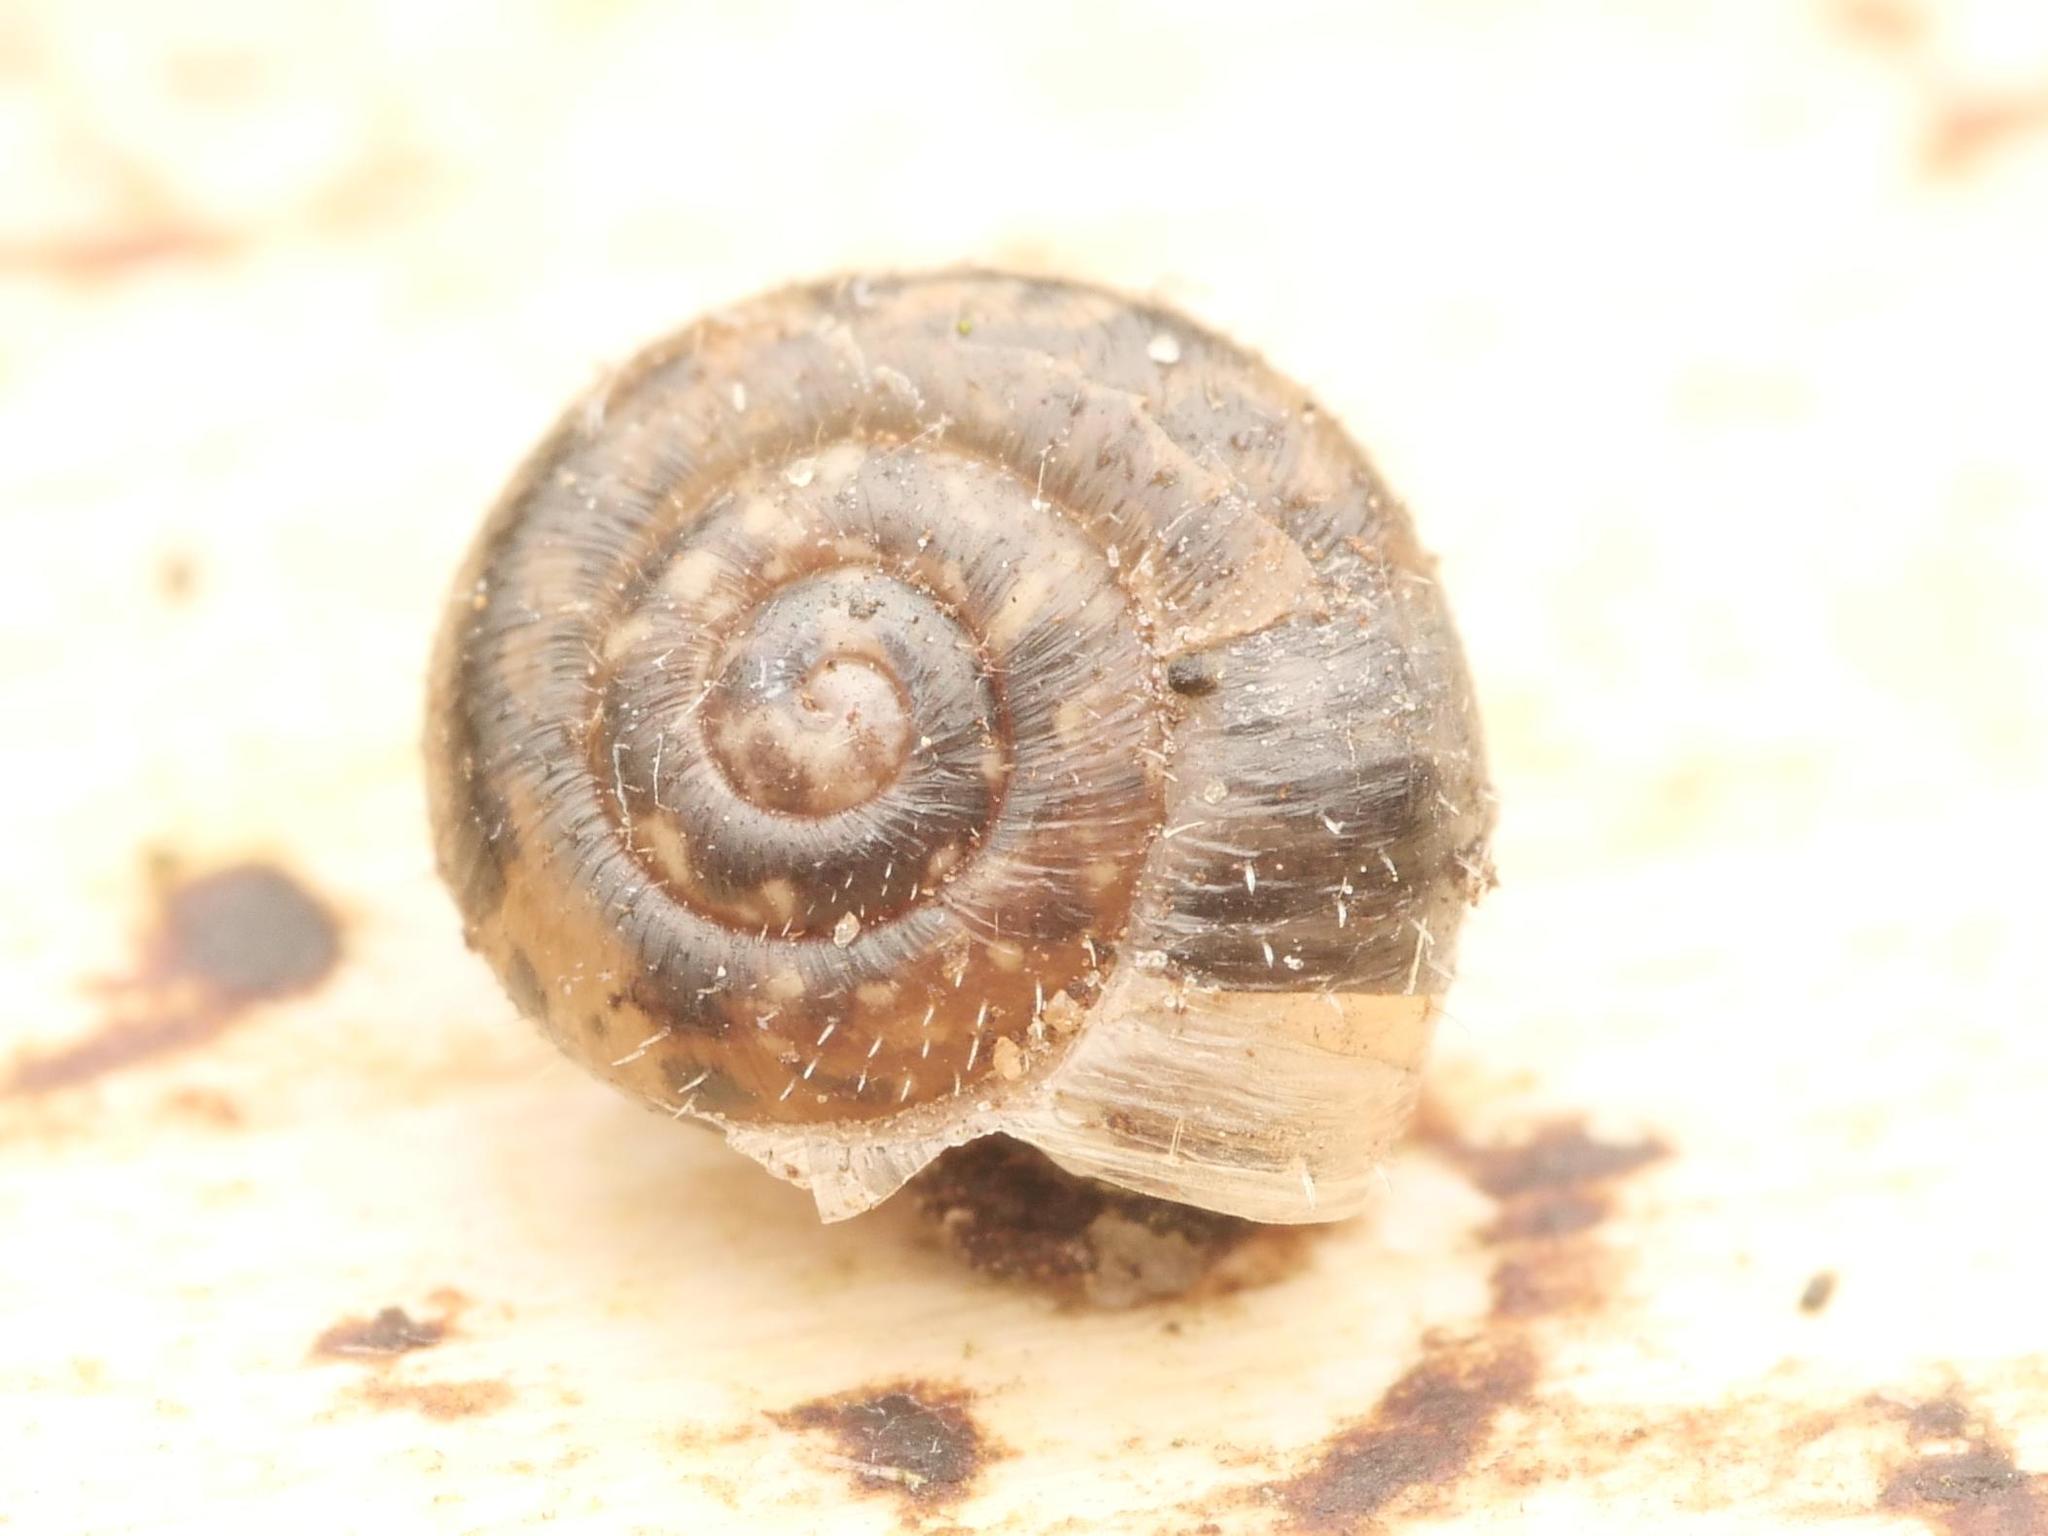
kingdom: Animalia
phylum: Mollusca
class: Gastropoda
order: Stylommatophora
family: Hygromiidae
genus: Trochulus
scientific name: Trochulus hispidus
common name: Hairy snail
